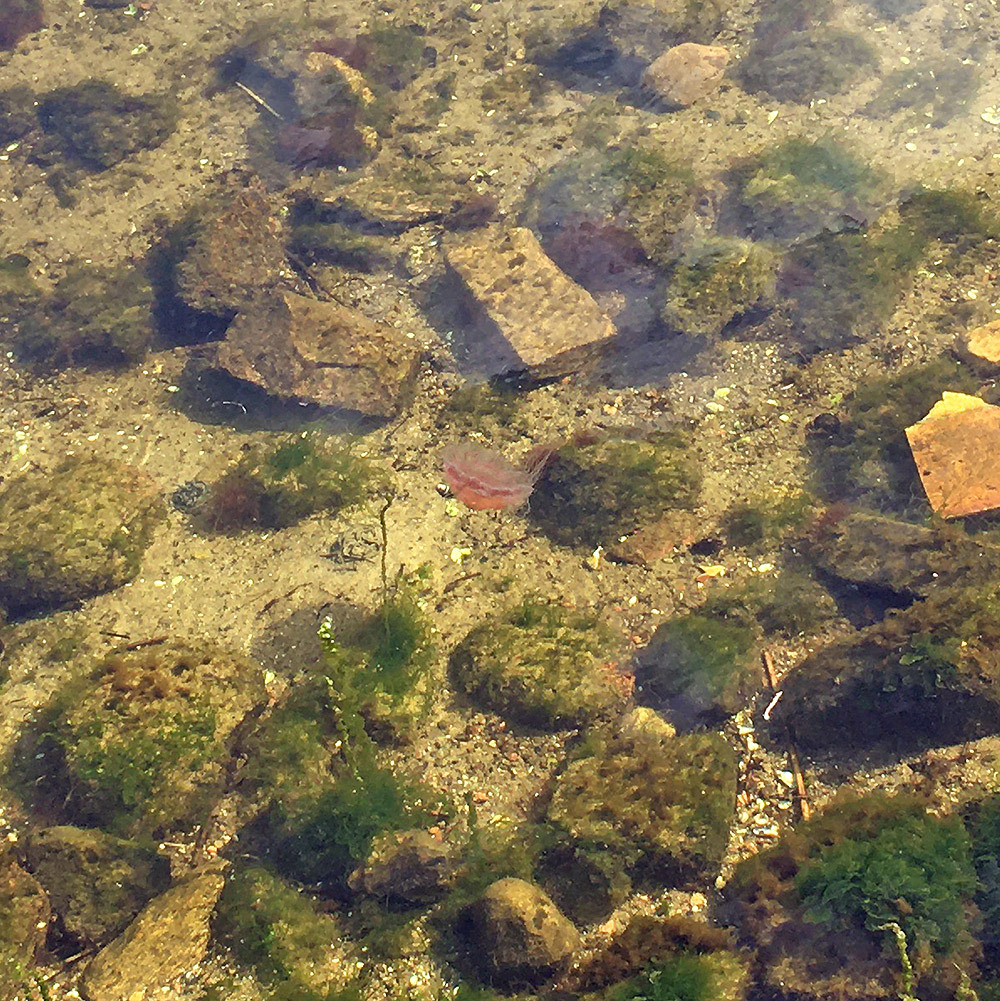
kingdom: Animalia
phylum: Cnidaria
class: Scyphozoa
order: Semaeostomeae
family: Cyaneidae
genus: Cyanea
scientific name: Cyanea capillata
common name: Lion's mane jellyfish
